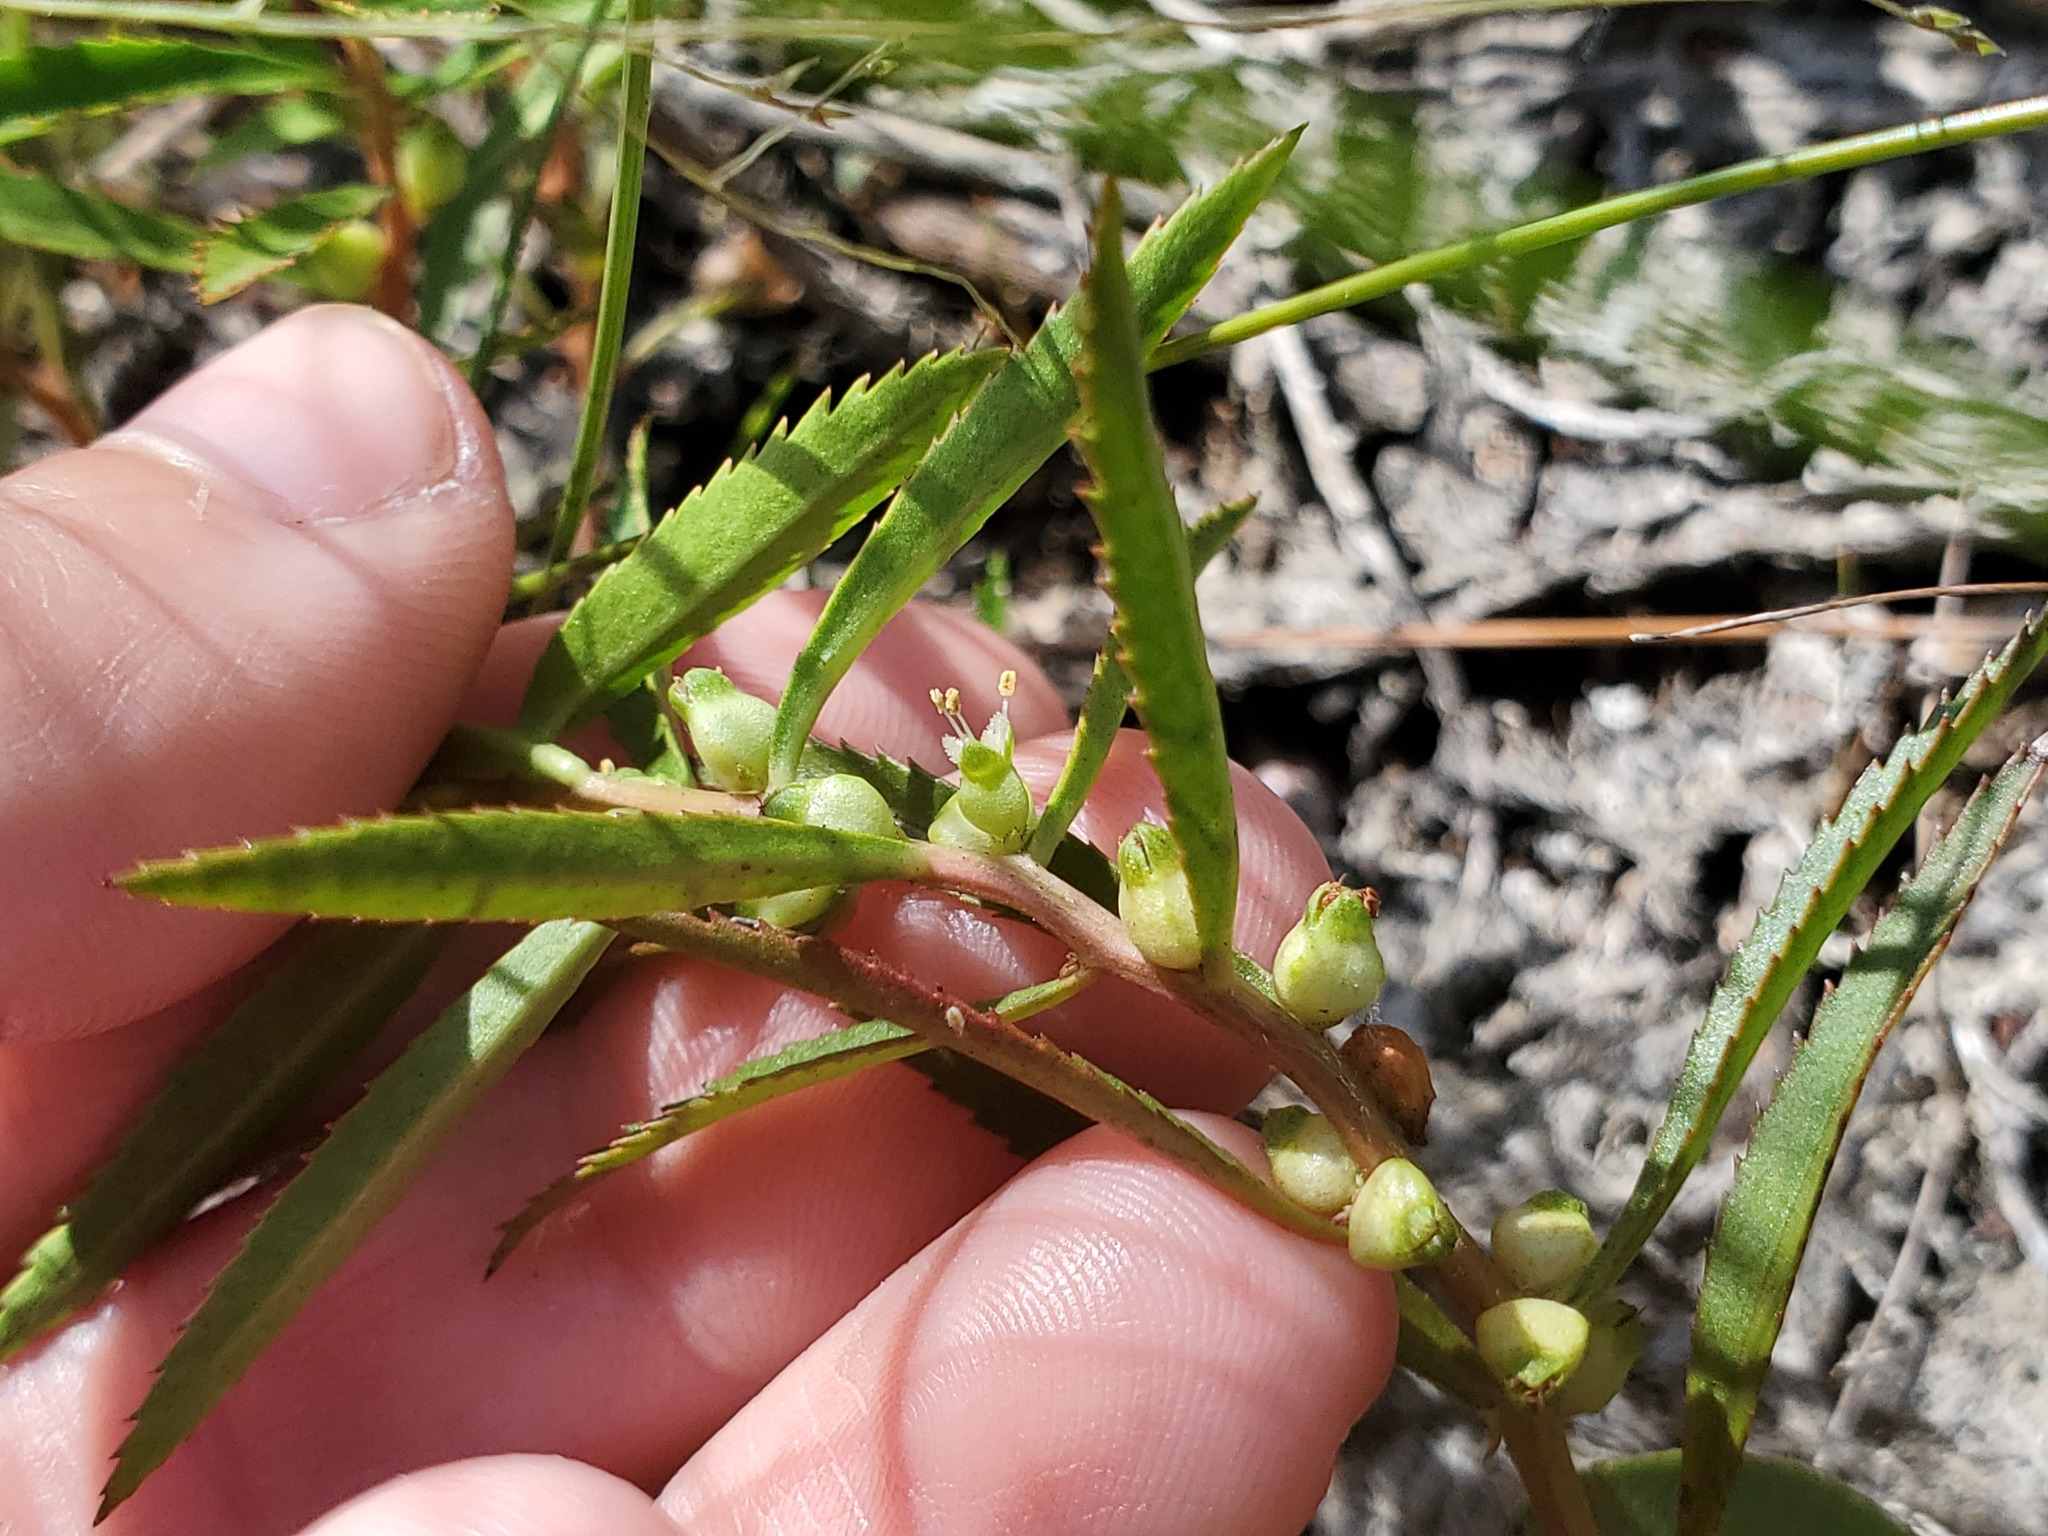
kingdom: Plantae
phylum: Tracheophyta
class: Magnoliopsida
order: Saxifragales
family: Haloragaceae
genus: Proserpinaca
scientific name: Proserpinaca palustris
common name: Marsh mermaidweed
